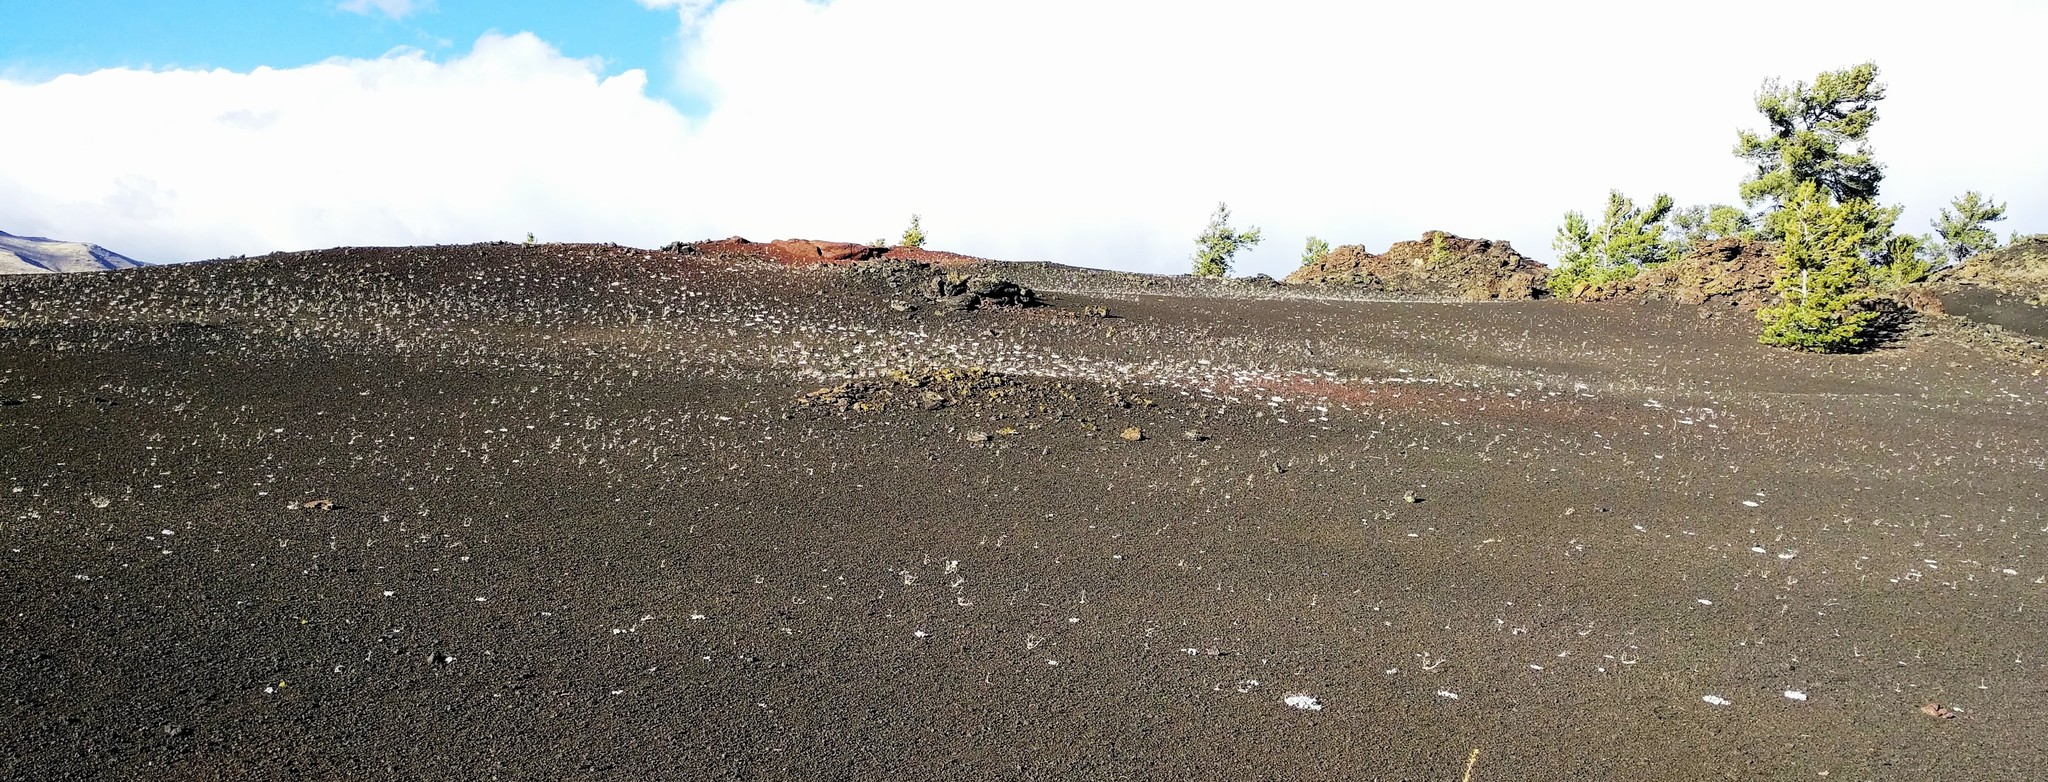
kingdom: Plantae
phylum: Tracheophyta
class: Magnoliopsida
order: Caryophyllales
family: Polygonaceae
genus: Eriogonum
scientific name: Eriogonum ovalifolium
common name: Cushion buckwheat
